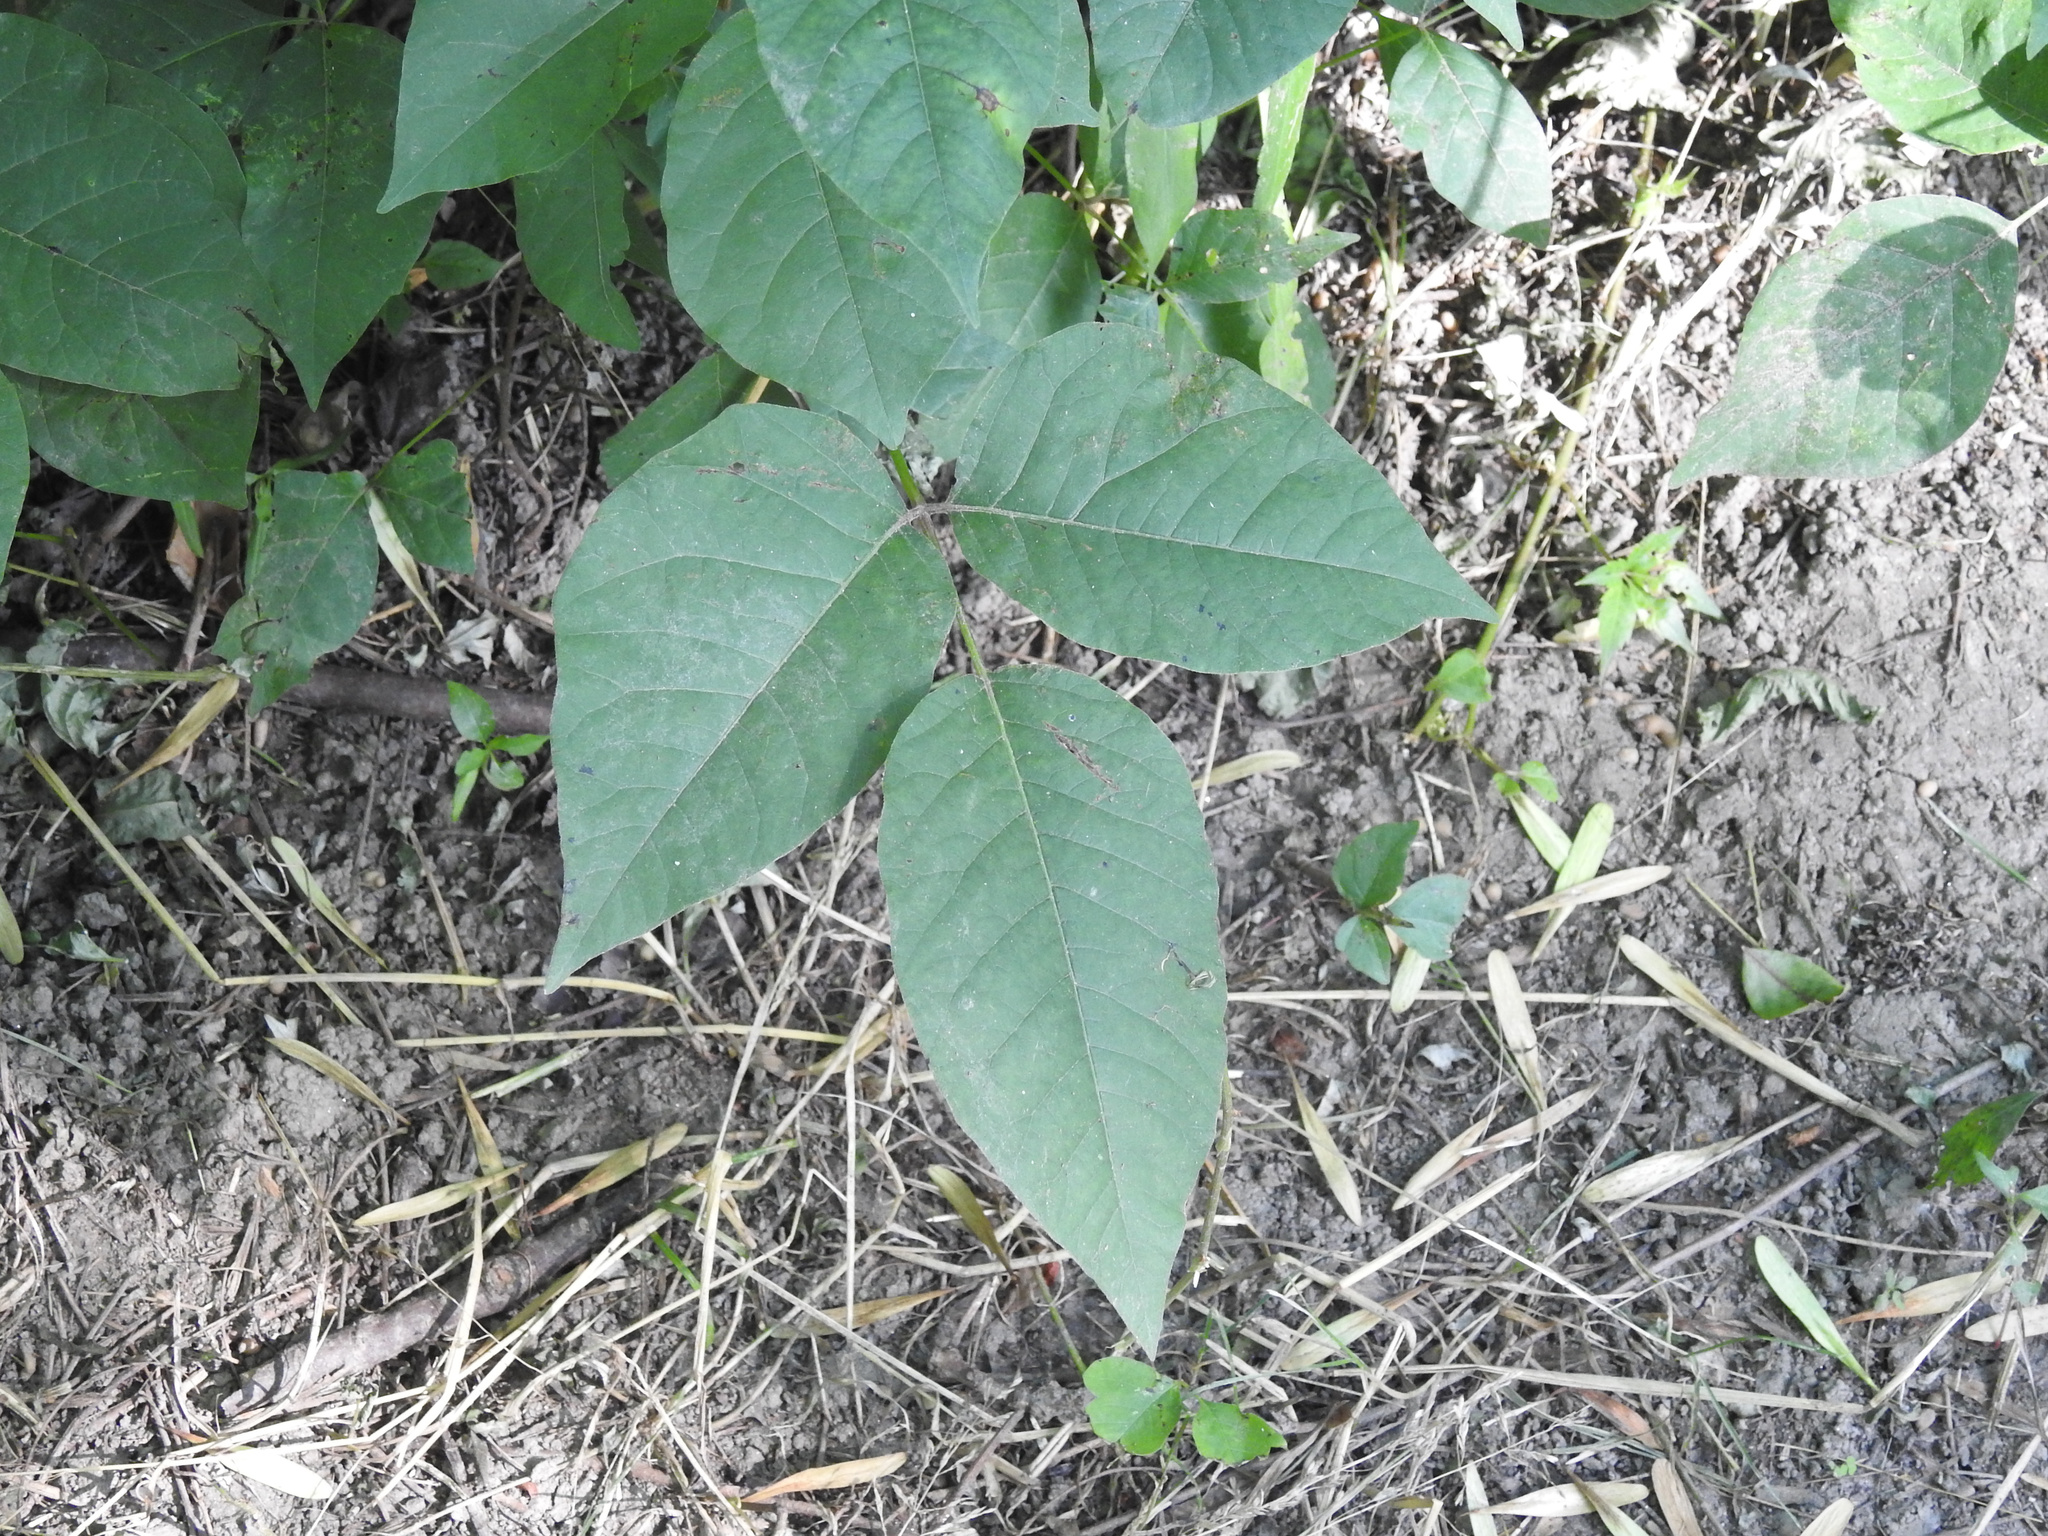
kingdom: Plantae
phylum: Tracheophyta
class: Magnoliopsida
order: Sapindales
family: Anacardiaceae
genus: Toxicodendron
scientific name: Toxicodendron radicans
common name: Poison ivy
